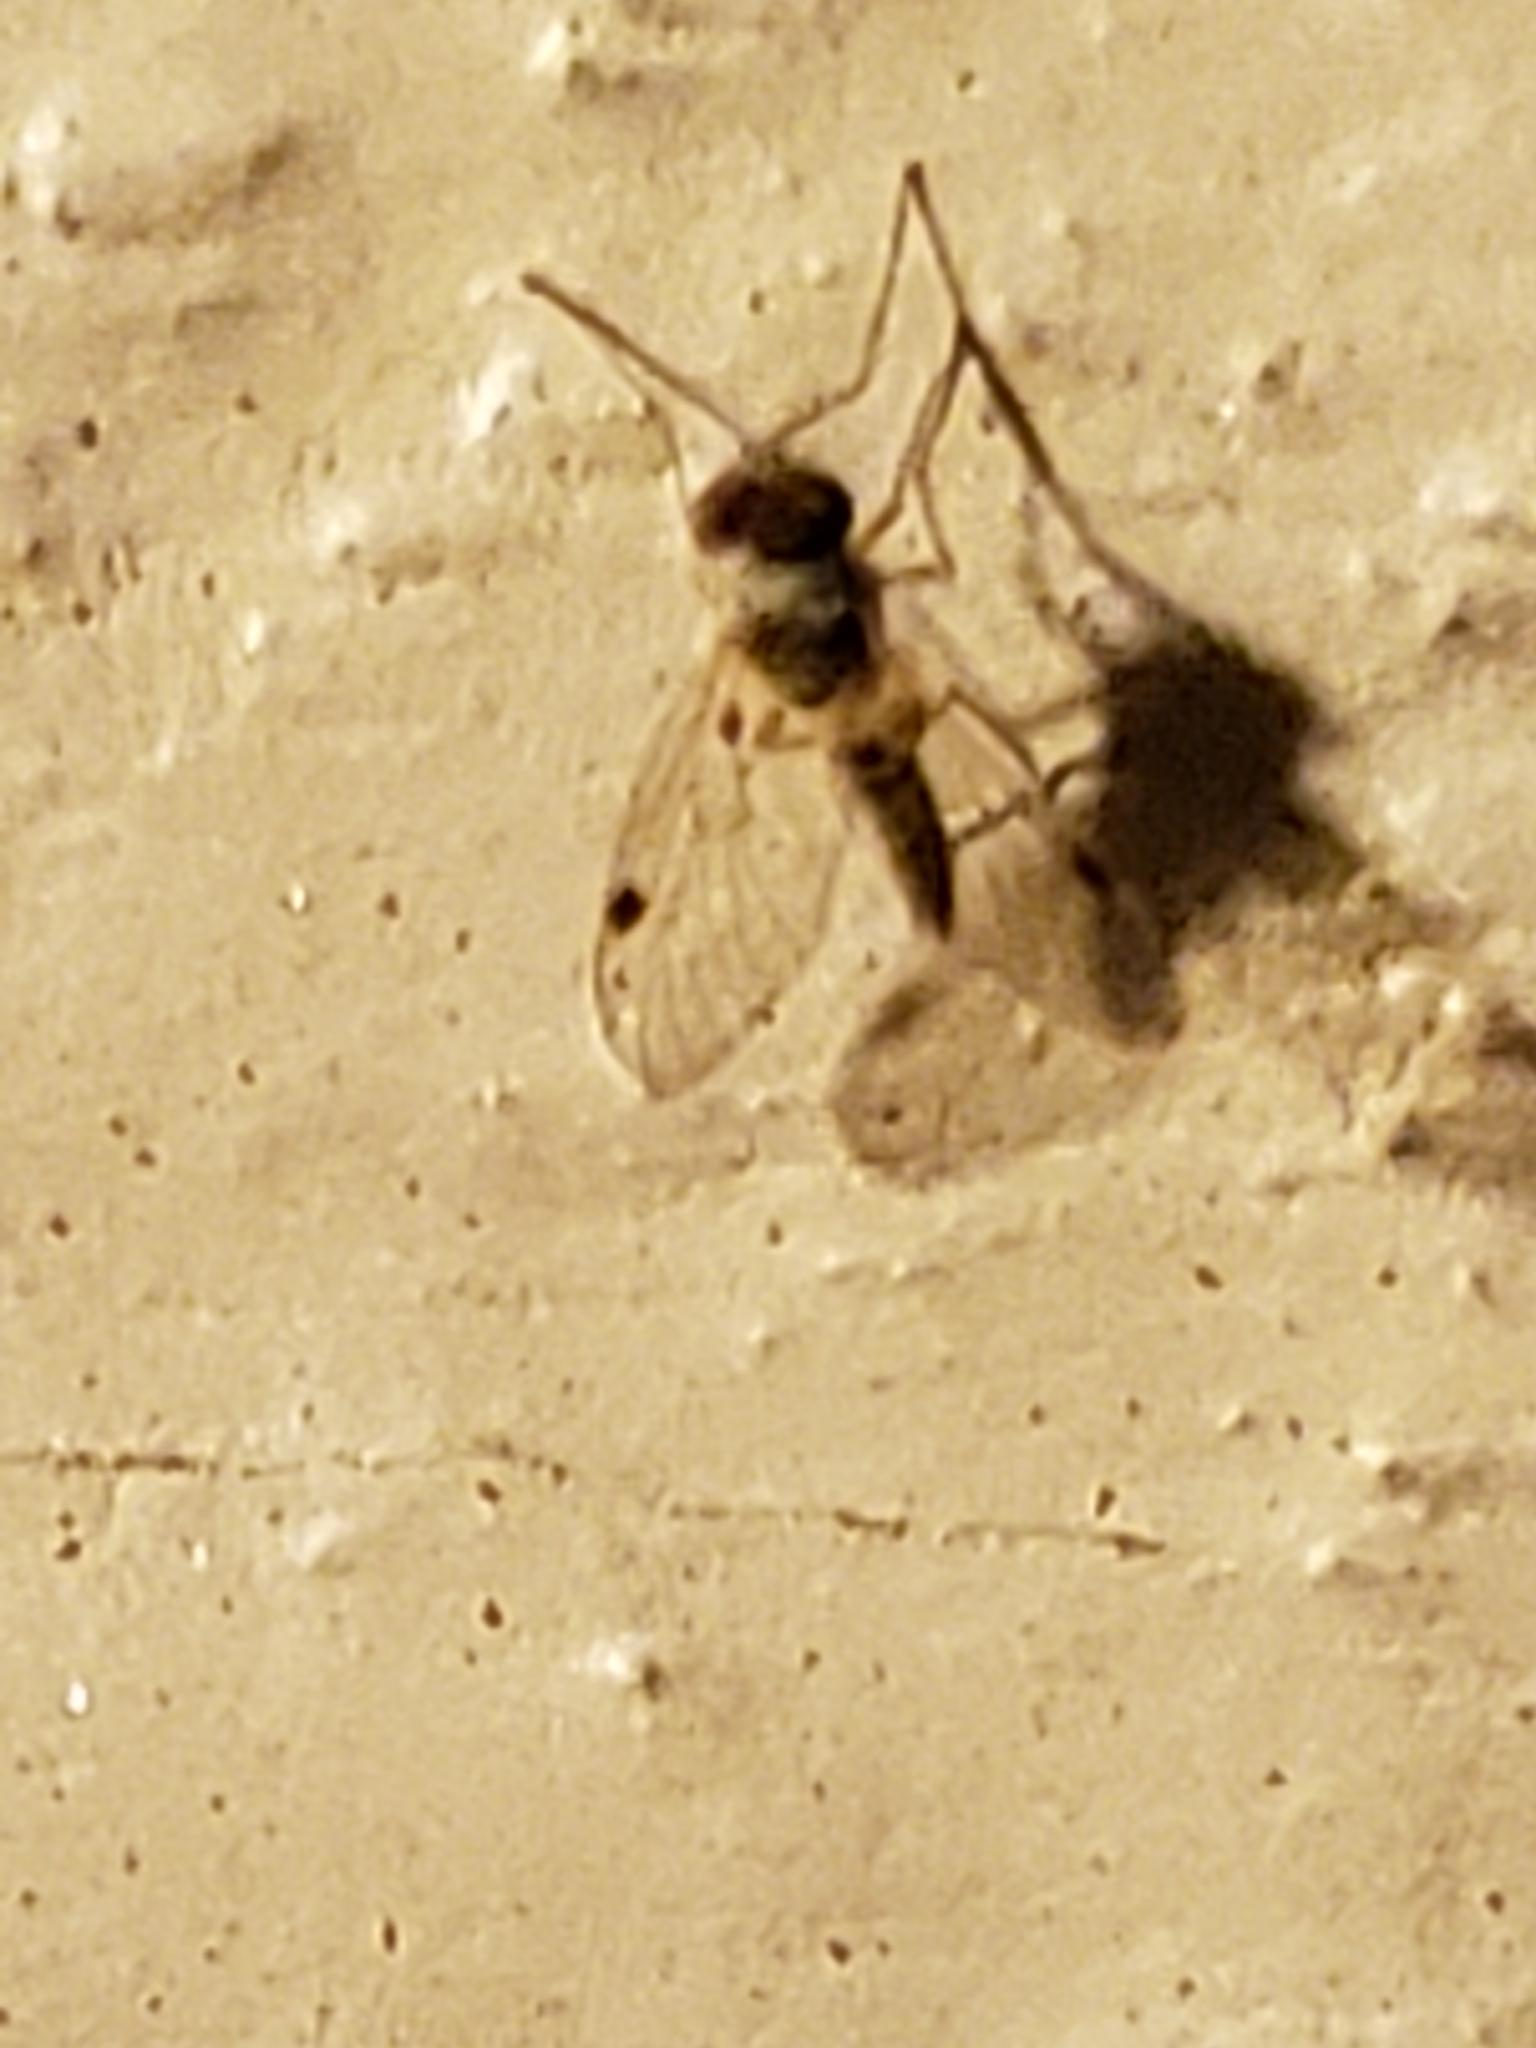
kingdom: Animalia
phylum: Arthropoda
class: Insecta
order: Diptera
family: Rhagionidae
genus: Chrysopilus
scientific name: Chrysopilus modestus
